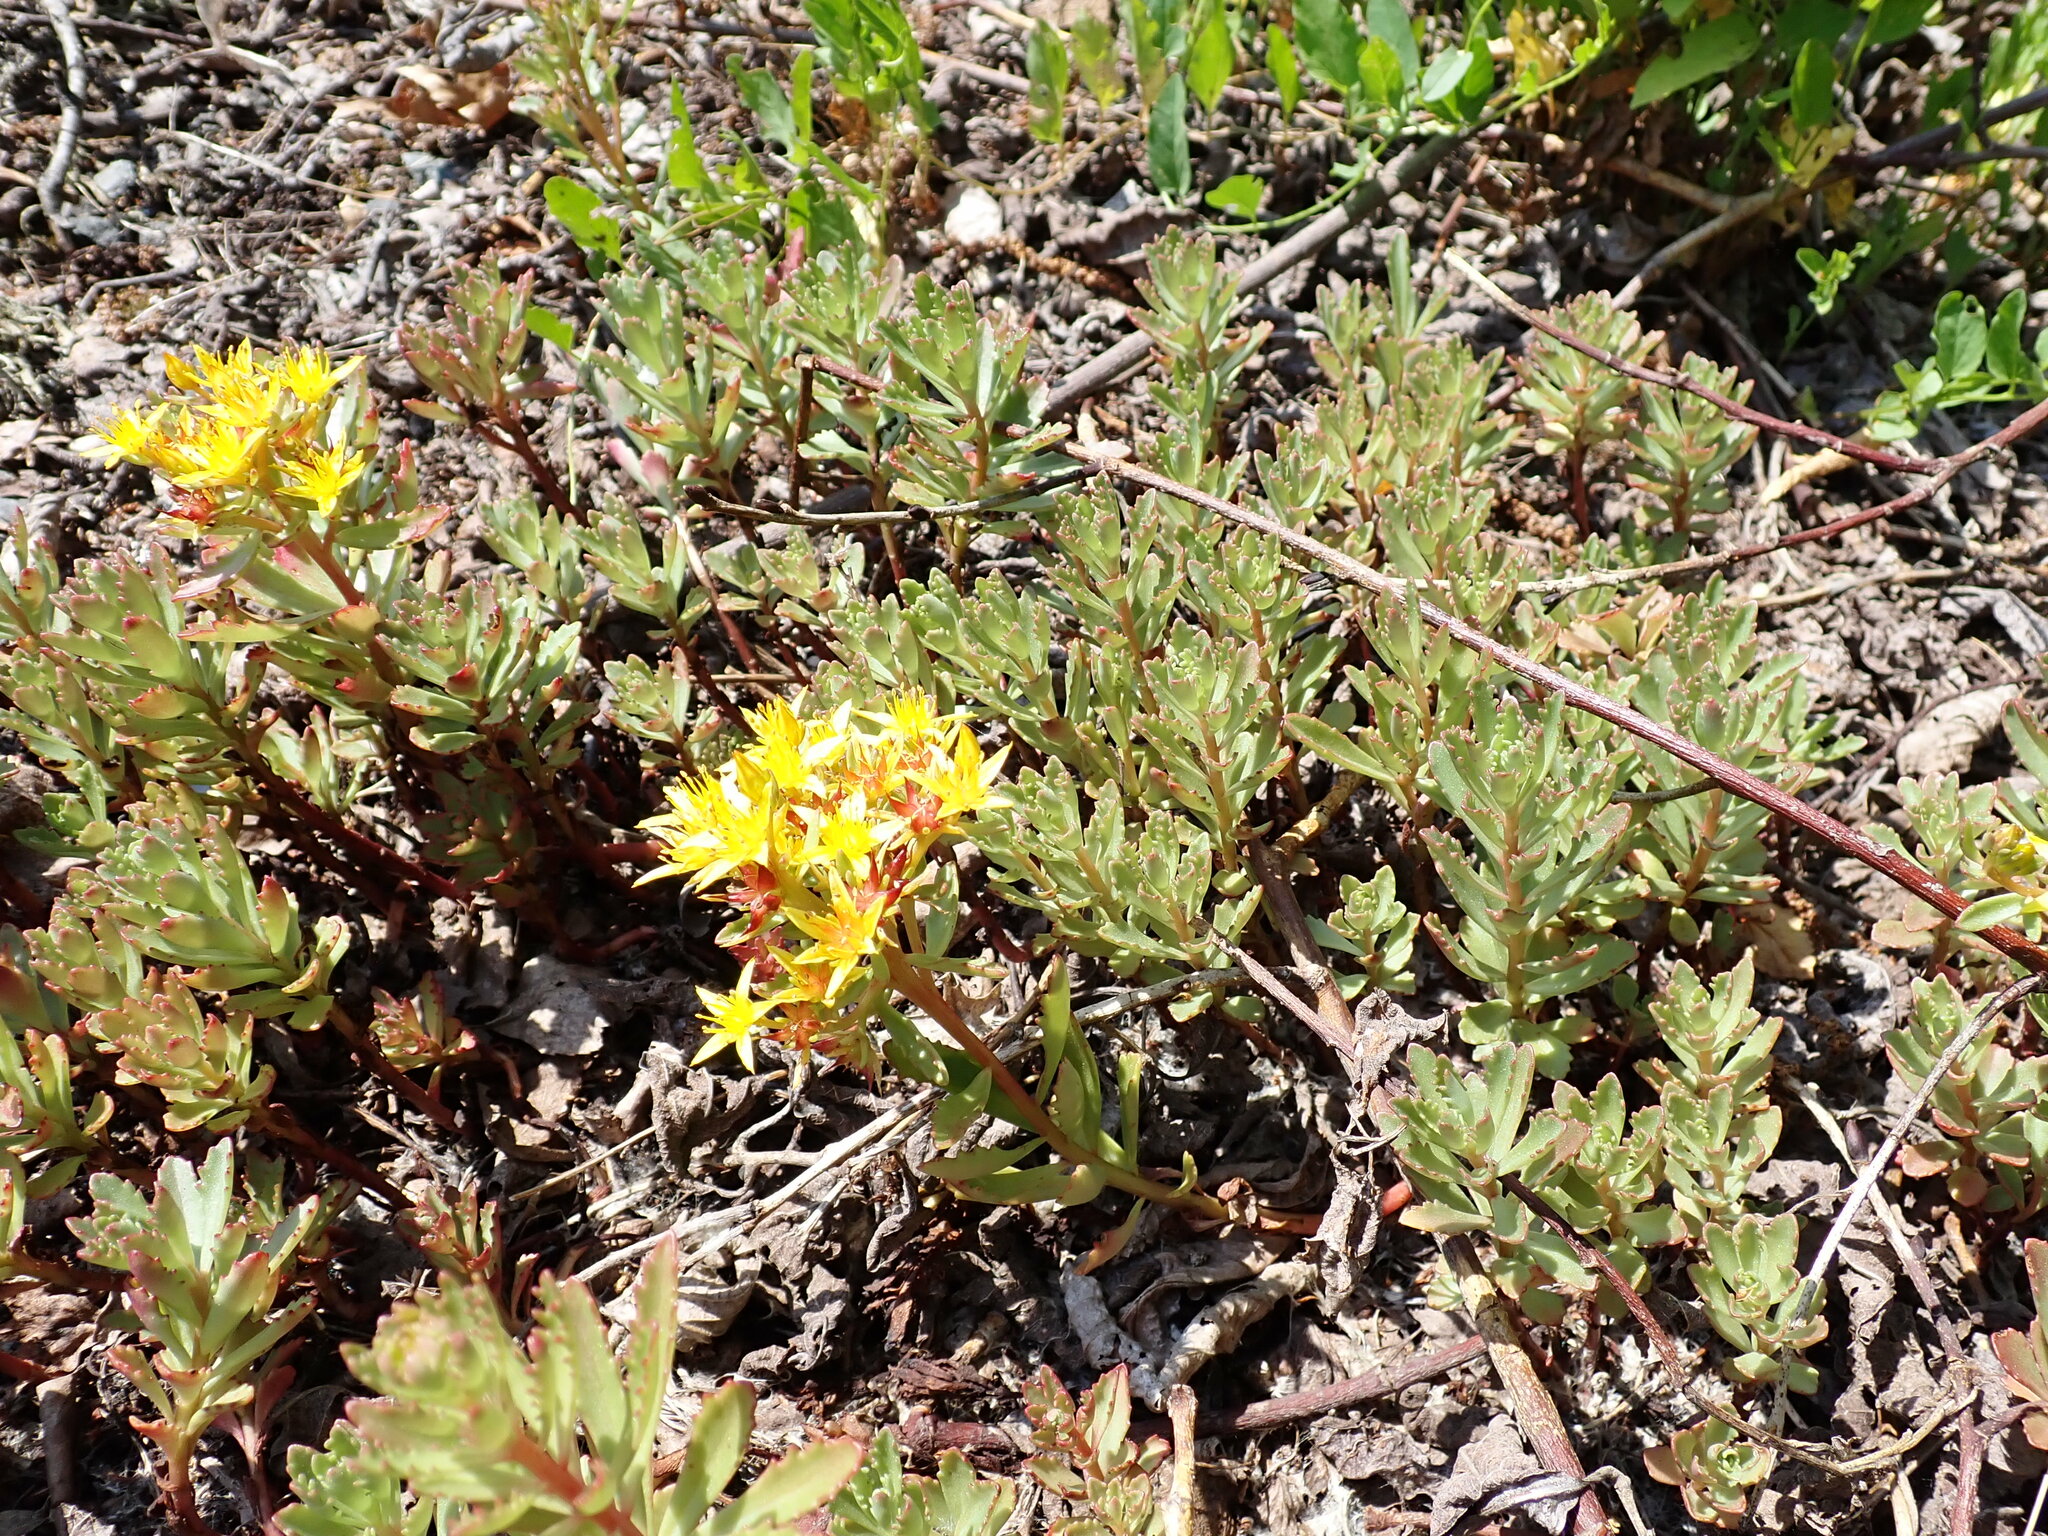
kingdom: Plantae
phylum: Tracheophyta
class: Magnoliopsida
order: Saxifragales
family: Crassulaceae
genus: Phedimus
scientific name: Phedimus hybridus
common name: Hybrid stonecrop
